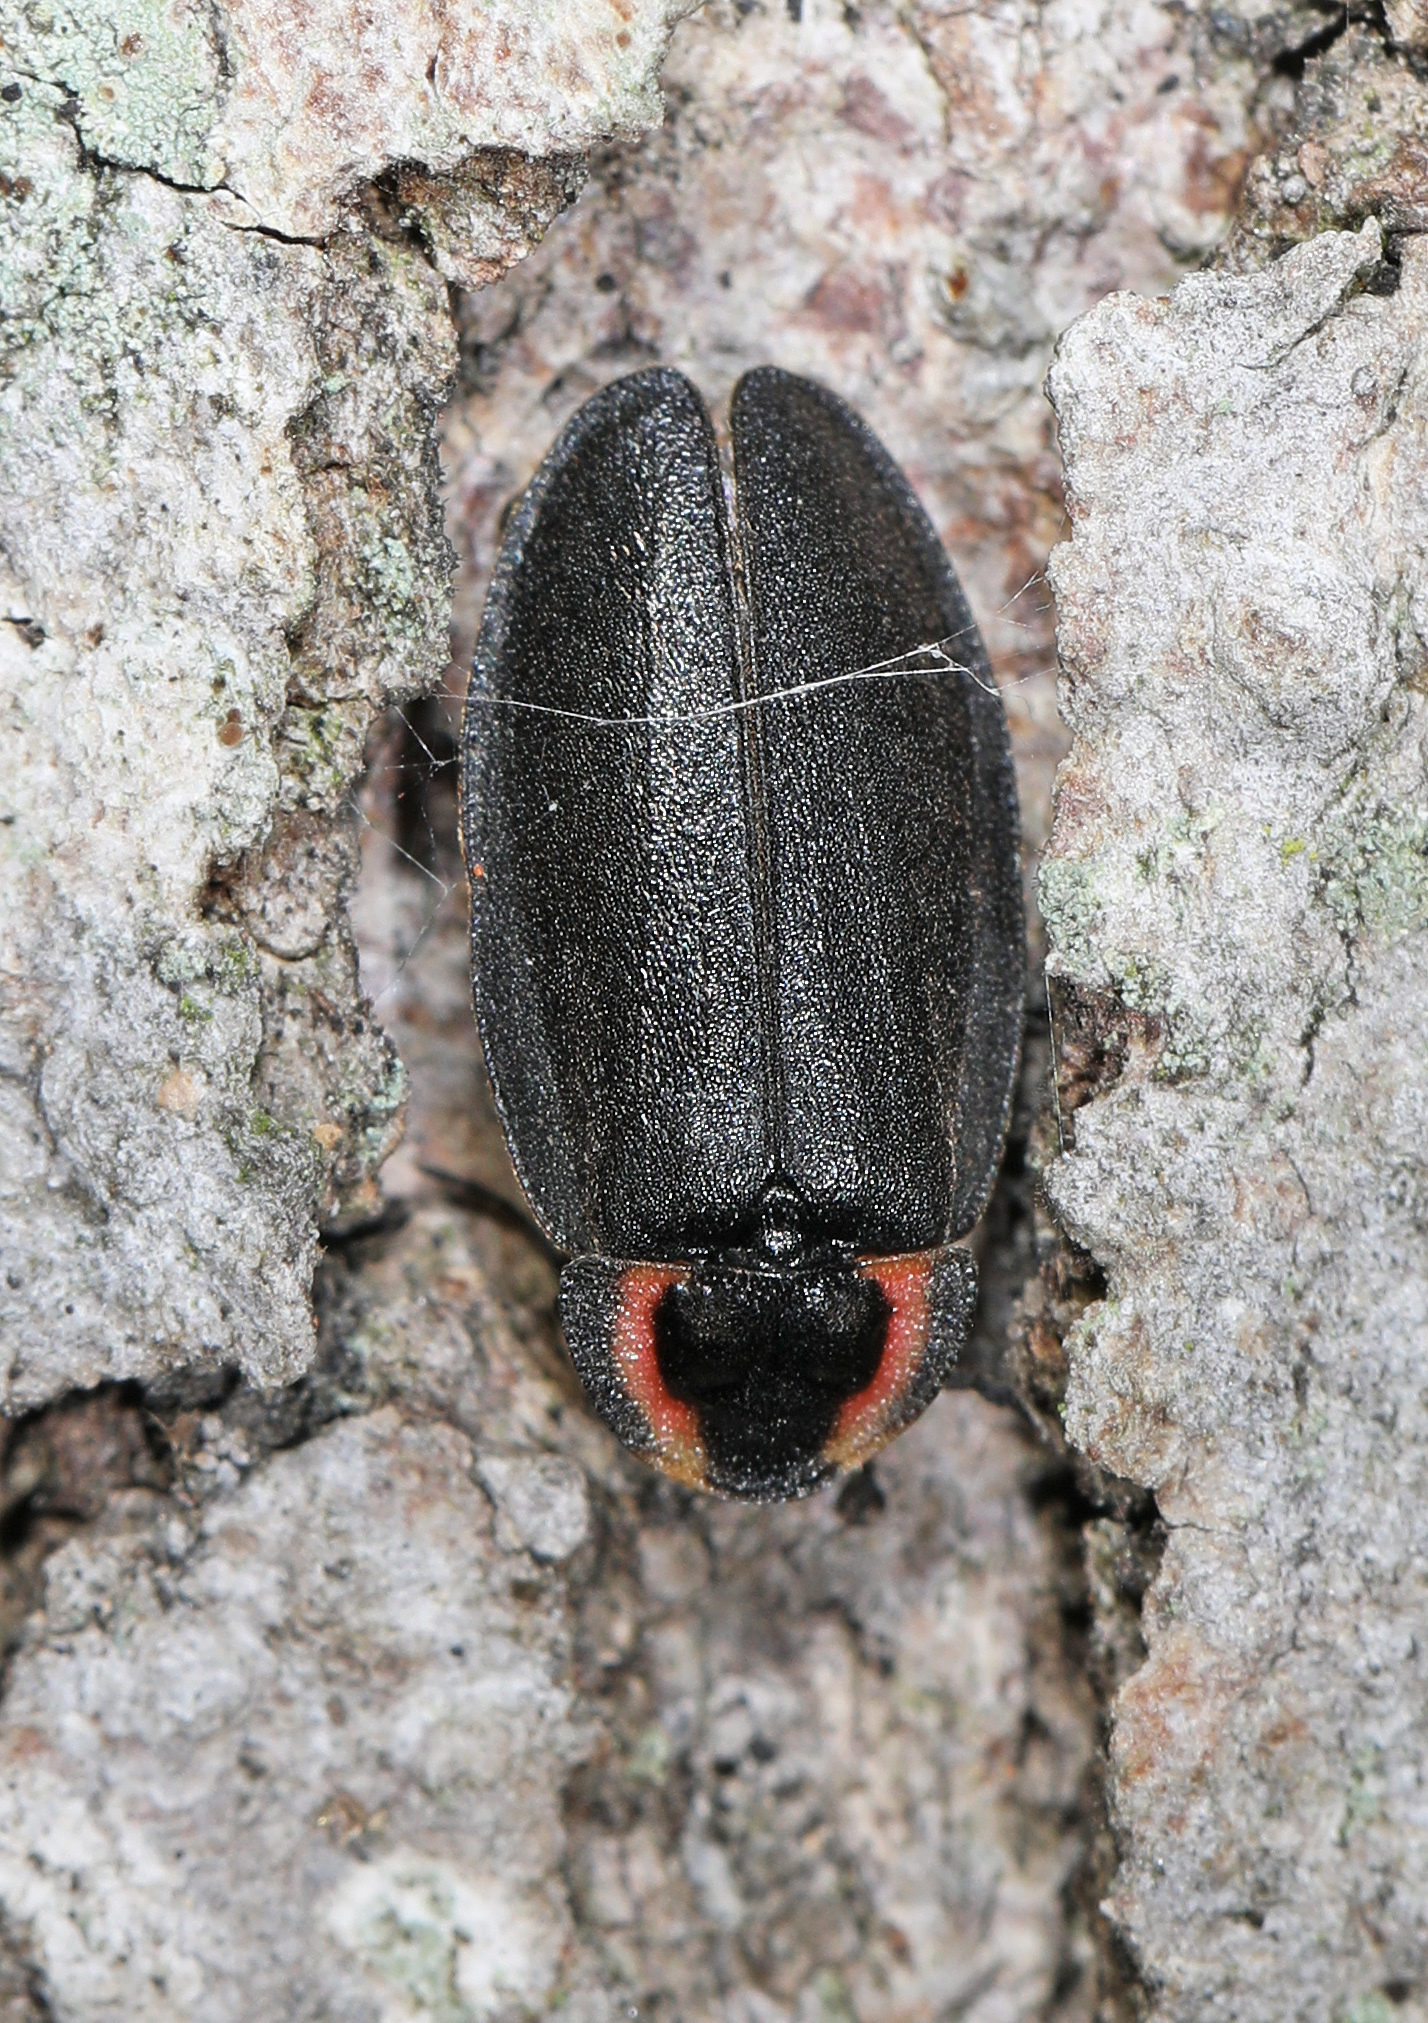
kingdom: Animalia
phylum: Arthropoda
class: Insecta
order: Coleoptera
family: Lampyridae
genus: Photinus
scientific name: Photinus corrusca
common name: Winter firefly
